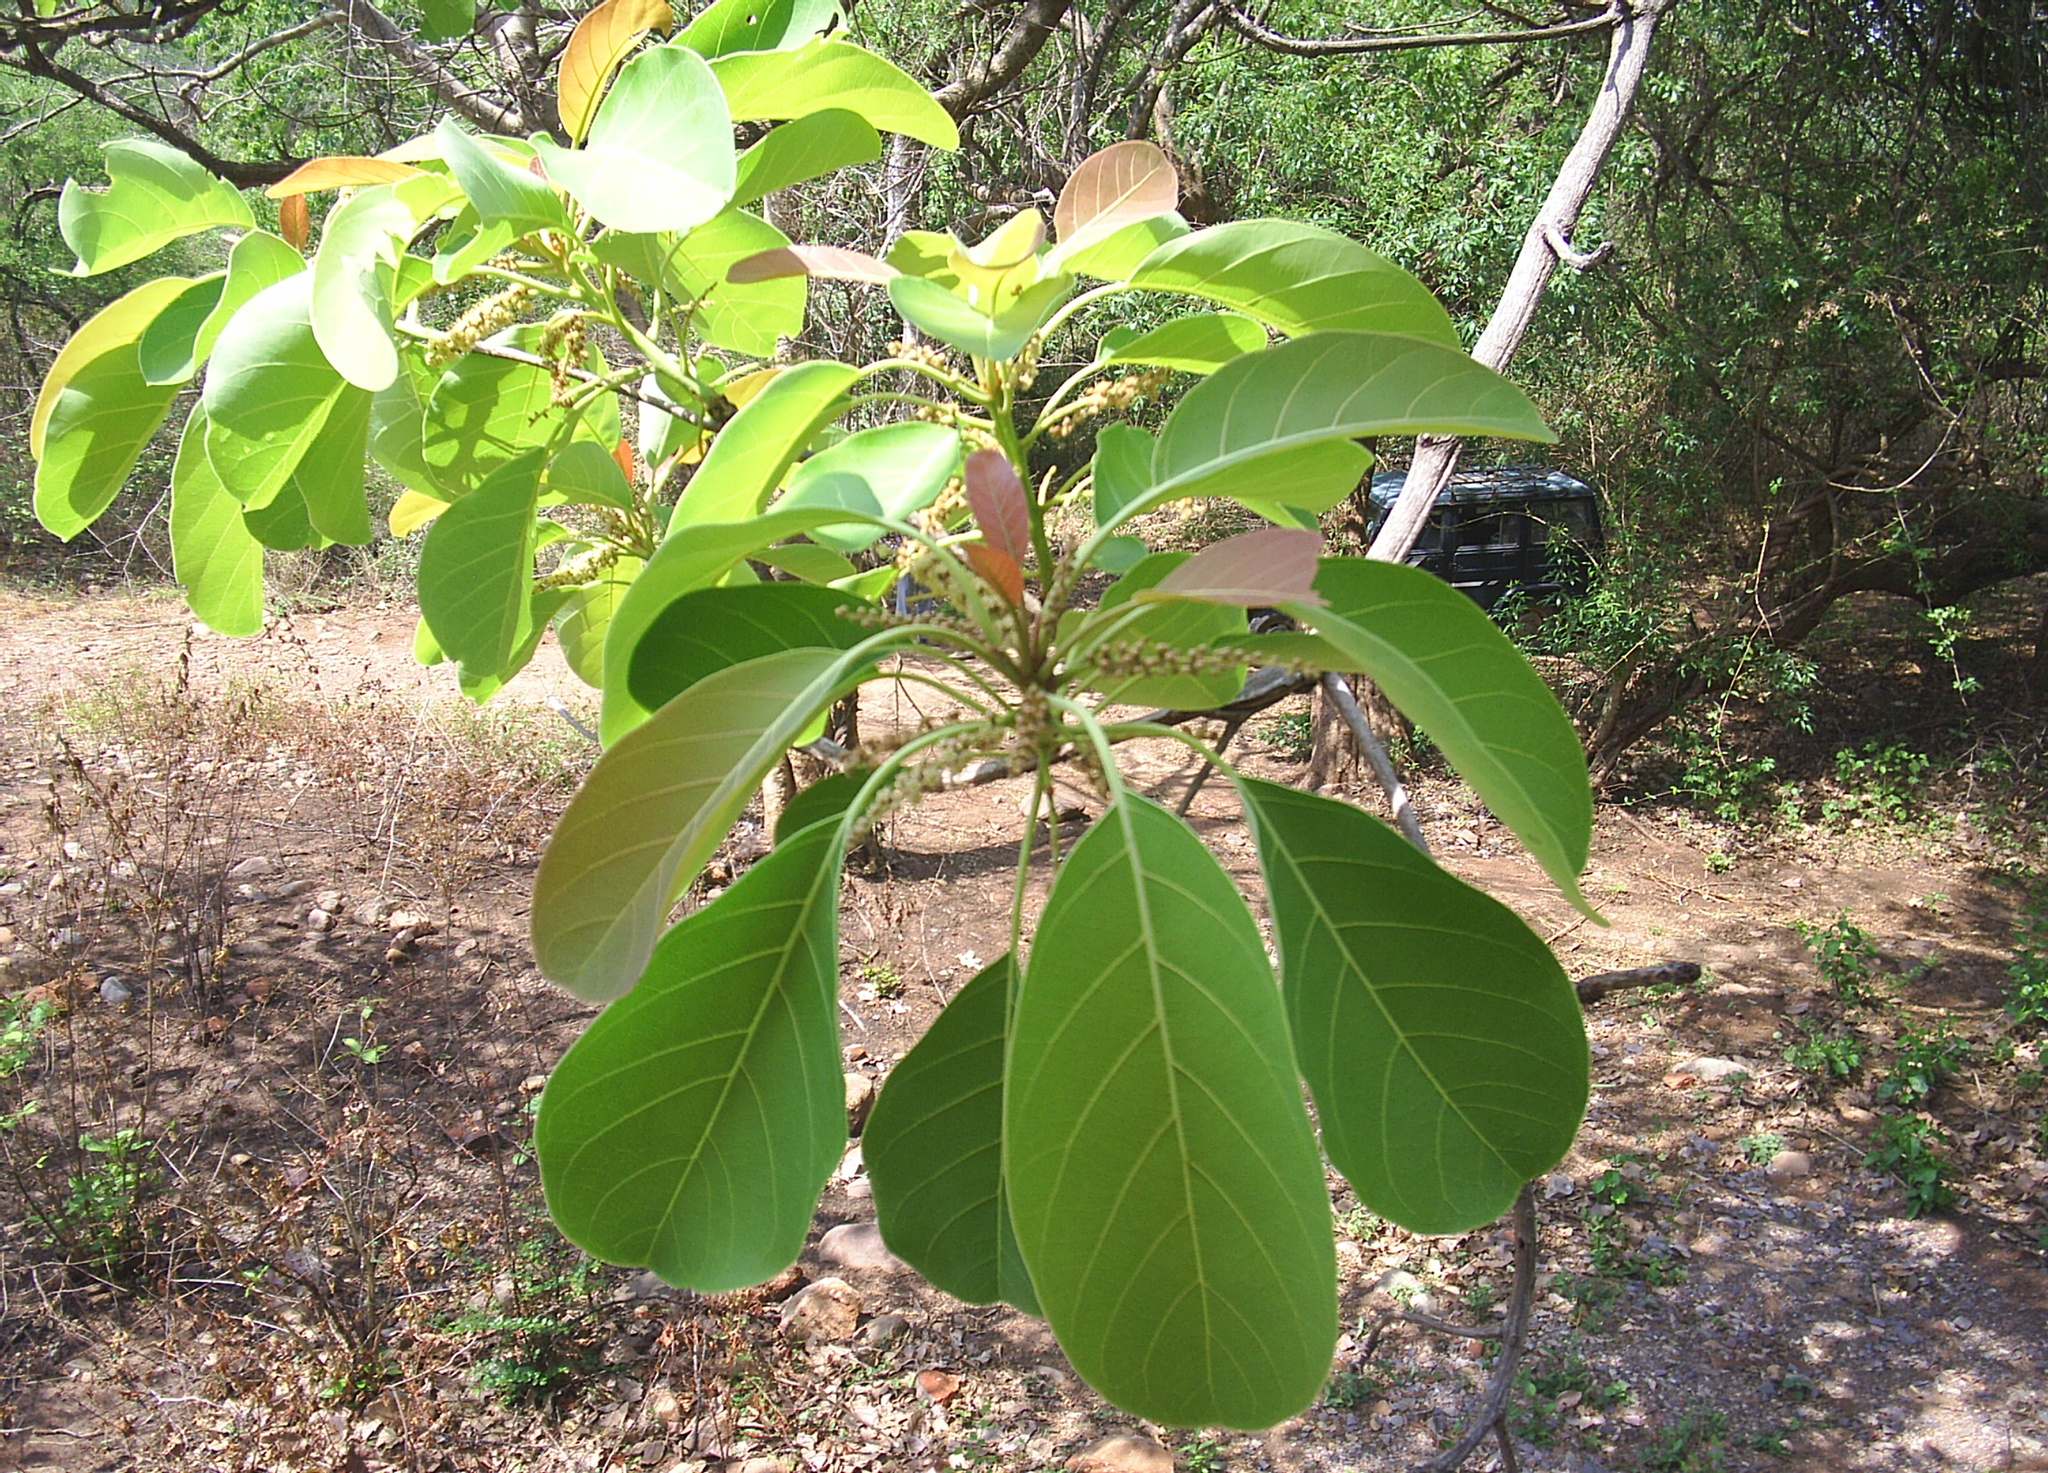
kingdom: Plantae
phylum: Tracheophyta
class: Magnoliopsida
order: Myrtales
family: Combretaceae
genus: Terminalia
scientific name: Terminalia bellirica
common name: Beleric myrobalan
